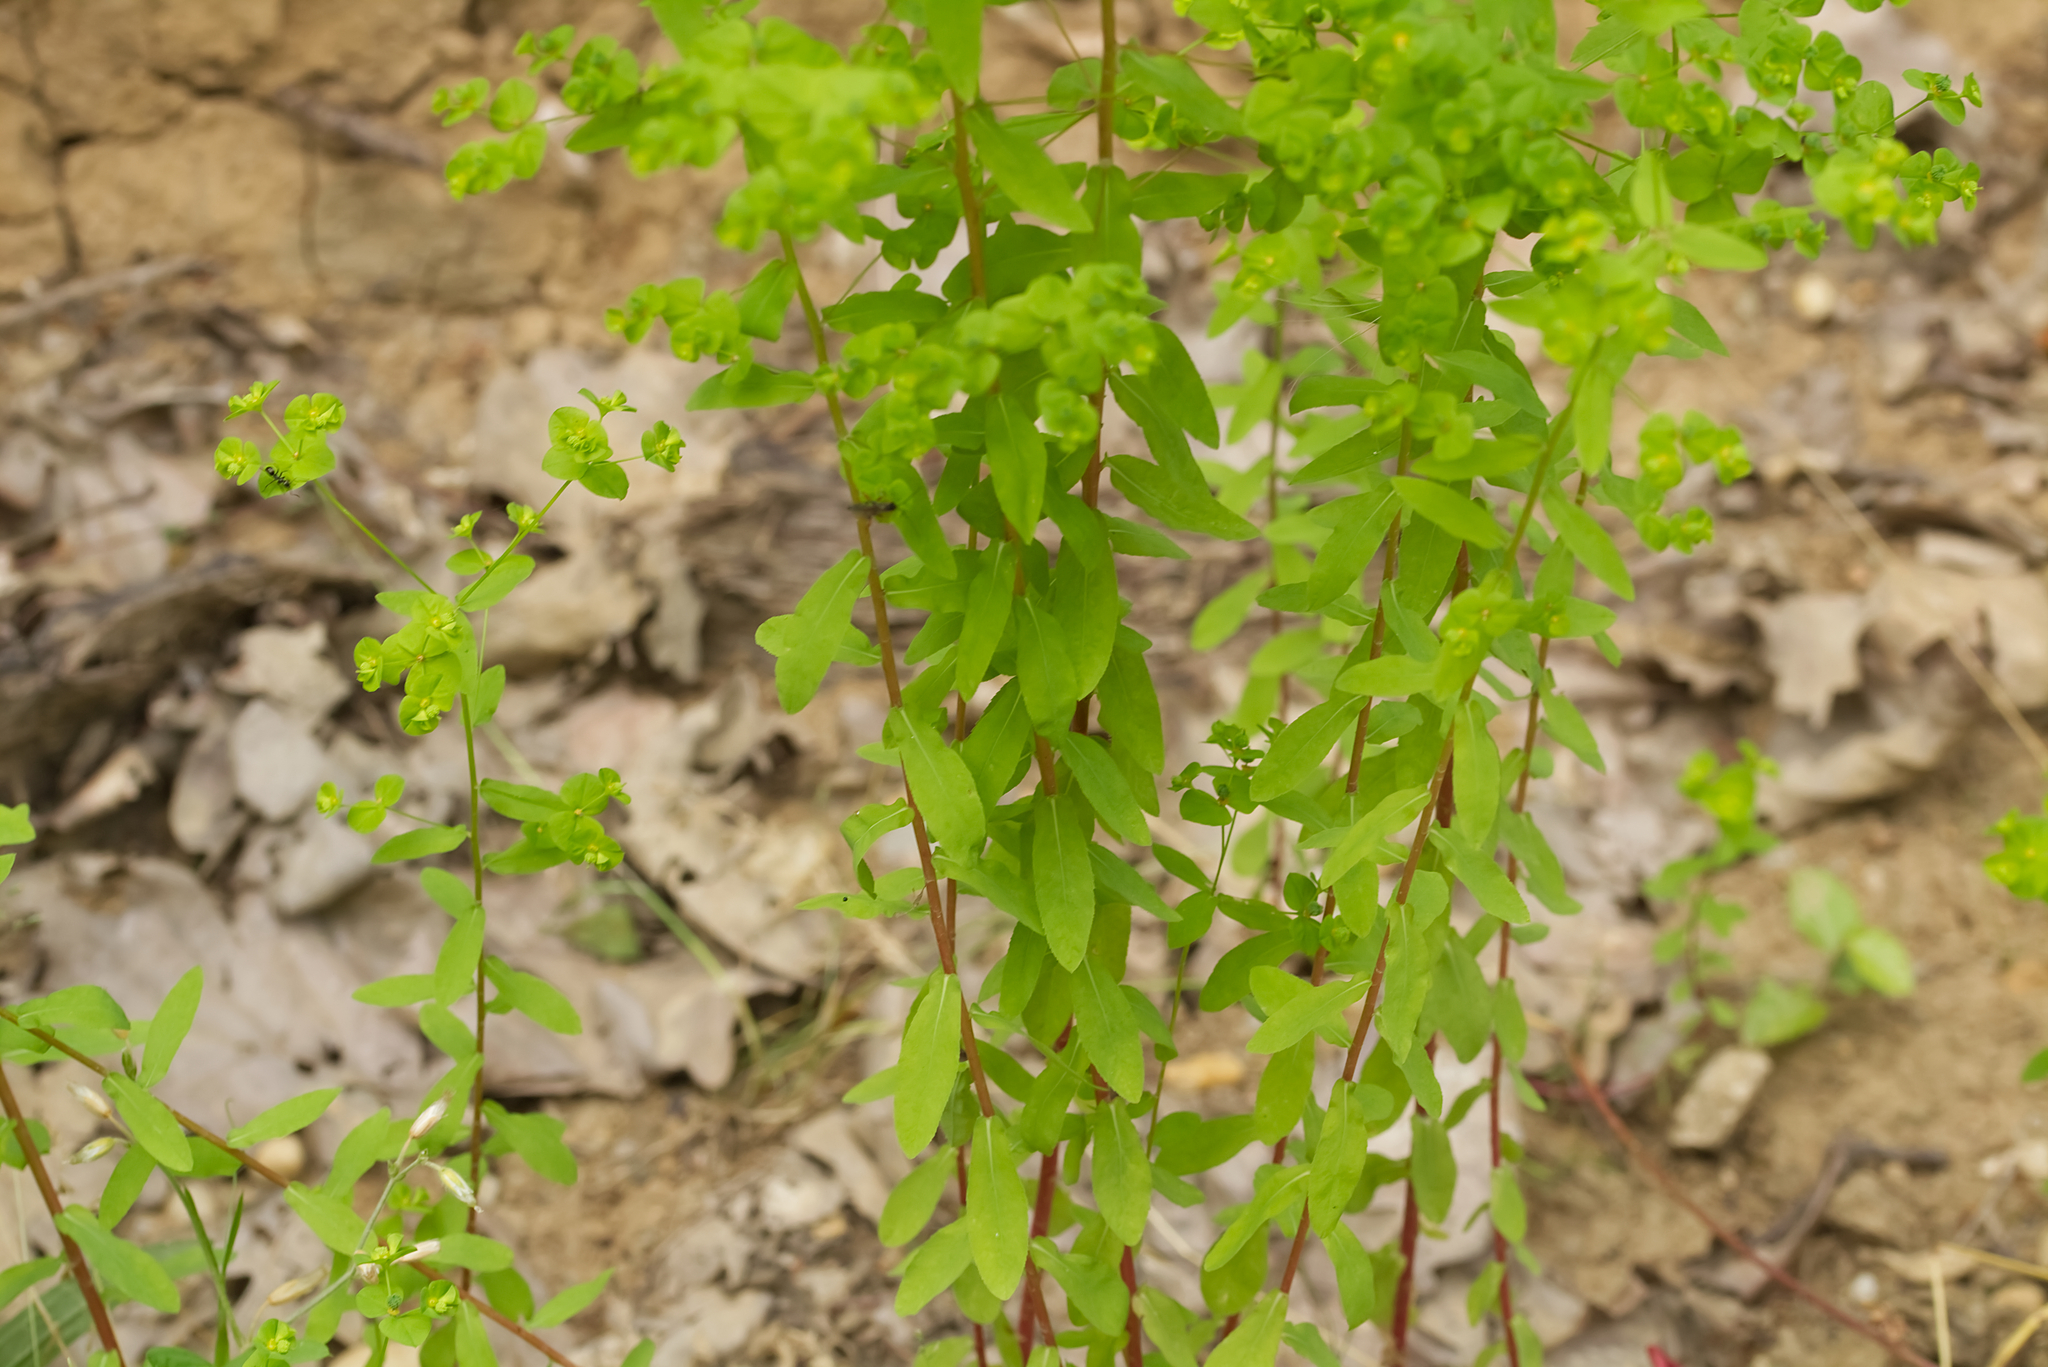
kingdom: Plantae
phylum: Tracheophyta
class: Magnoliopsida
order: Malpighiales
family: Euphorbiaceae
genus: Euphorbia
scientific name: Euphorbia stricta
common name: Upright spurge
